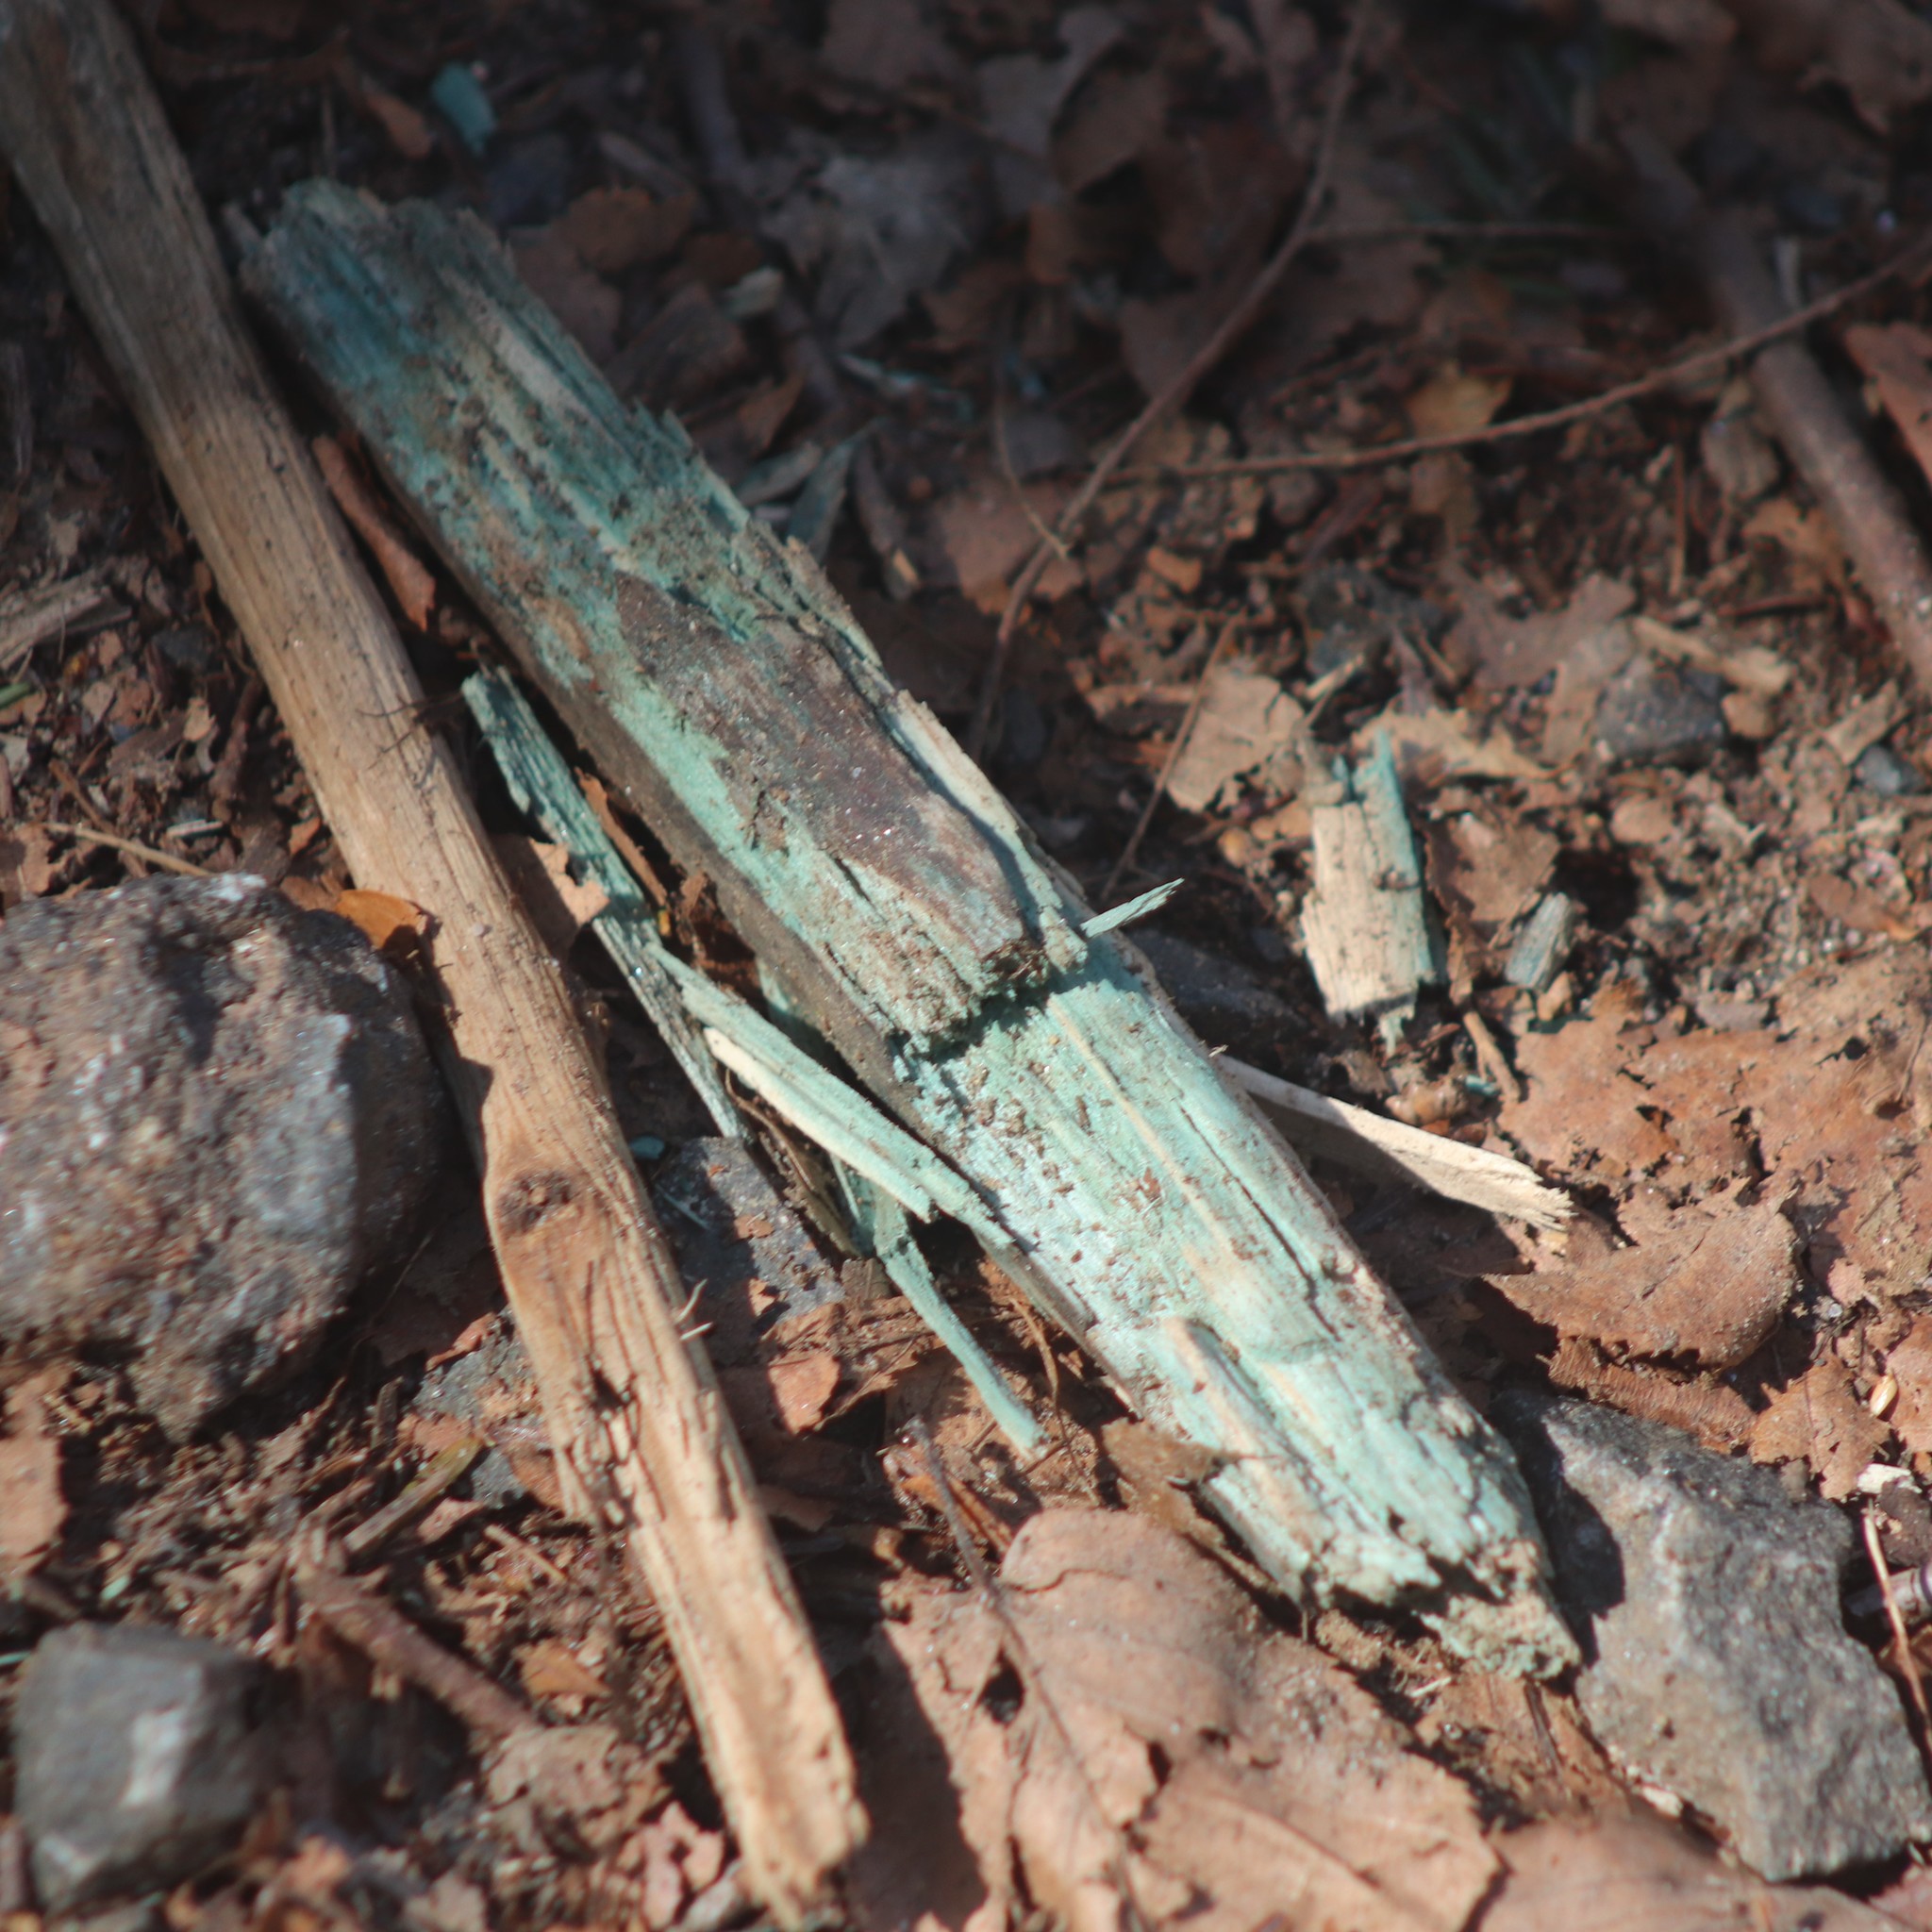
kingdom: Fungi
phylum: Ascomycota
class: Leotiomycetes
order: Helotiales
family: Chlorociboriaceae
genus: Chlorociboria
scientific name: Chlorociboria
